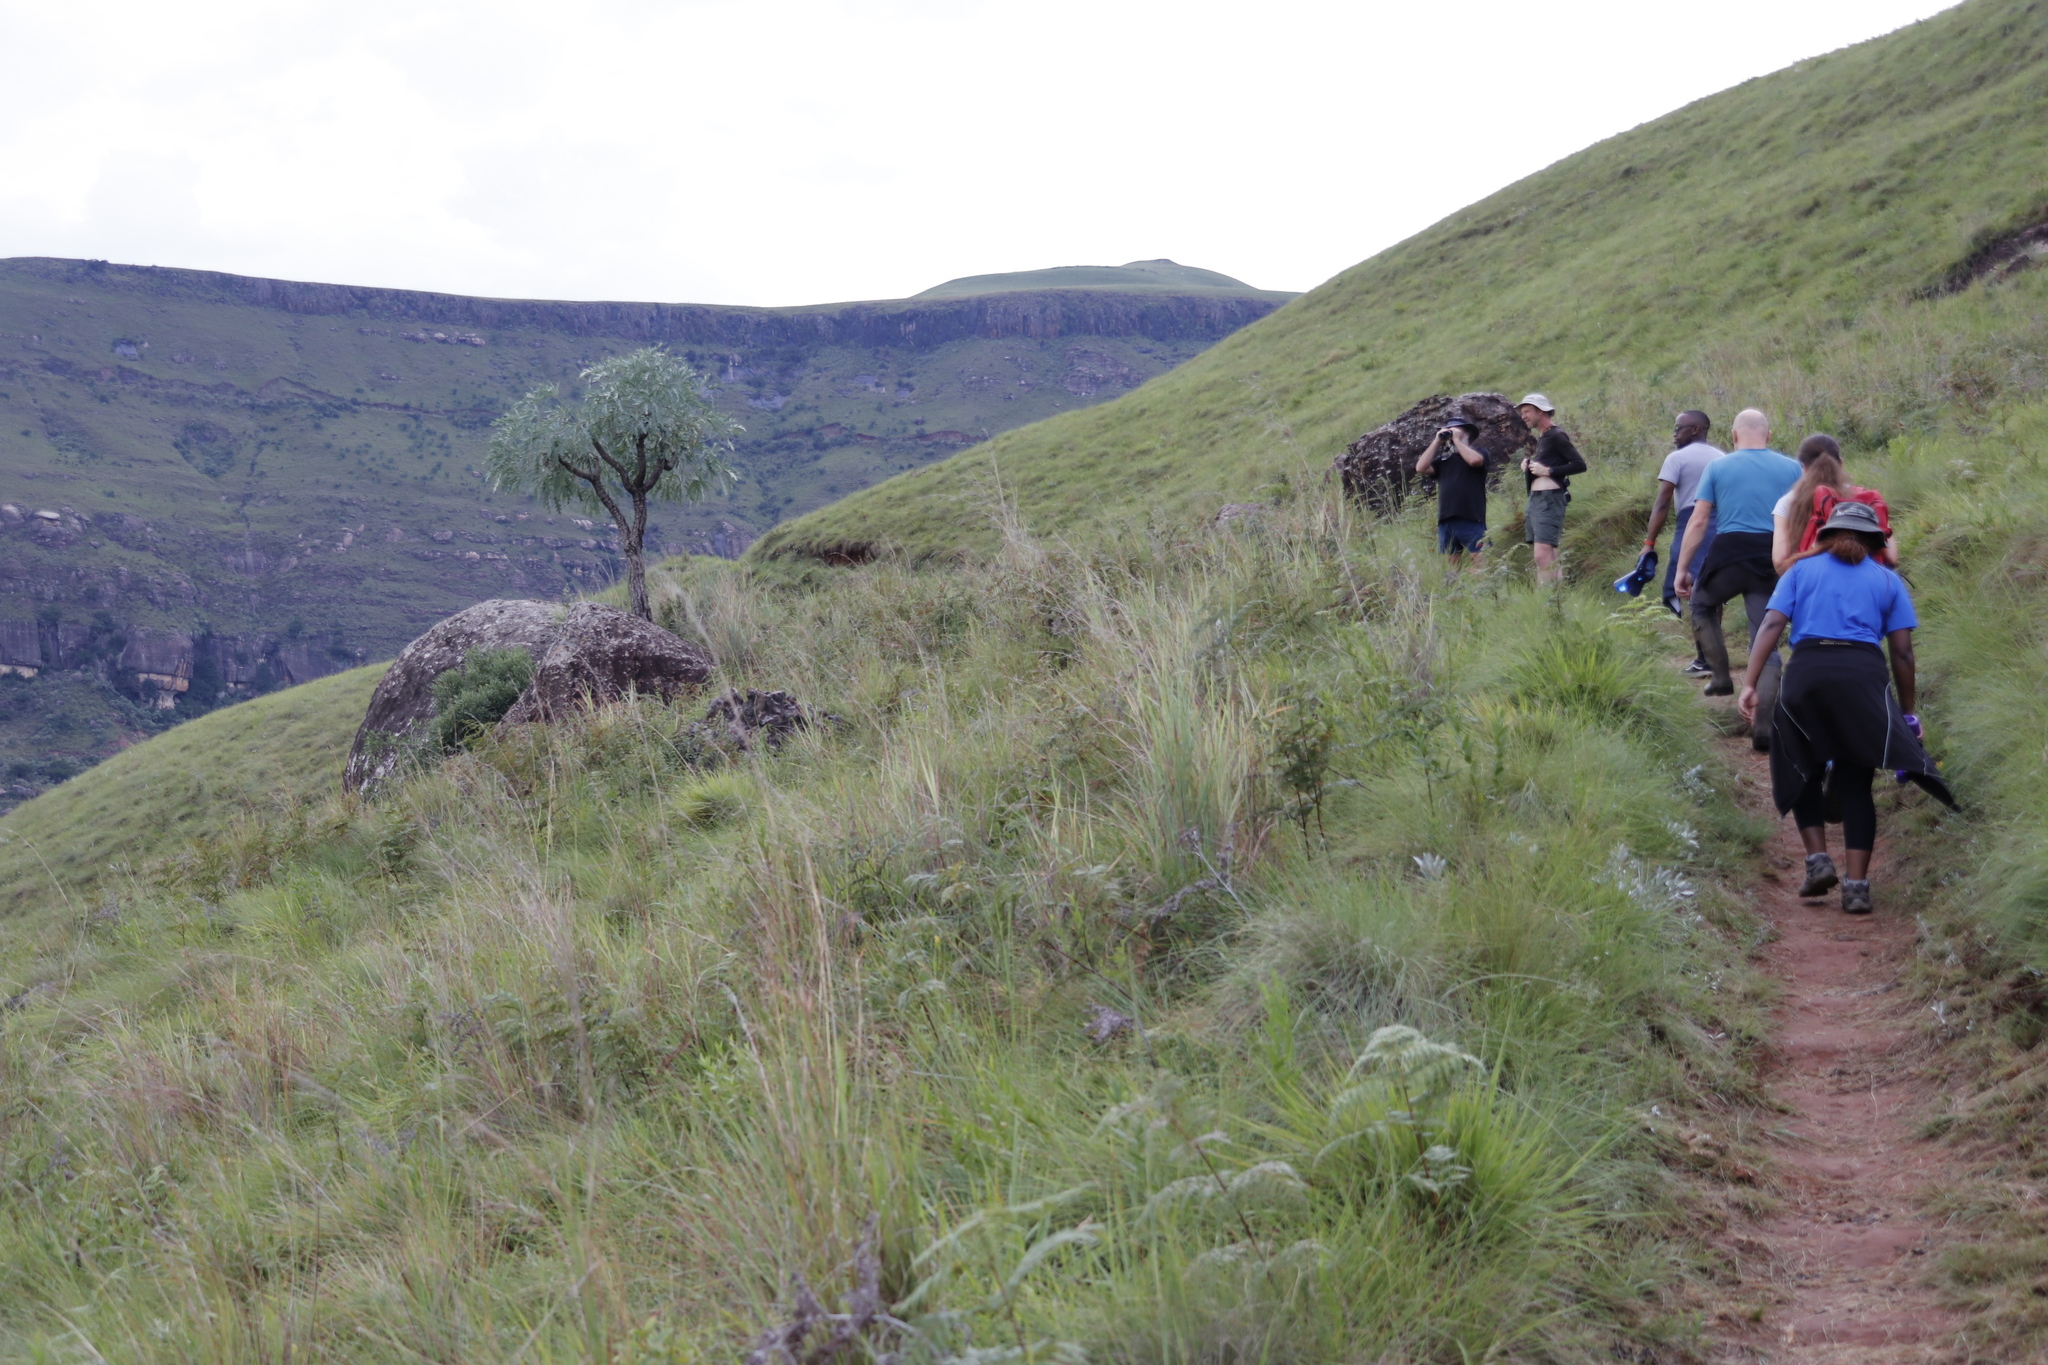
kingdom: Plantae
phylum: Tracheophyta
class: Magnoliopsida
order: Apiales
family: Araliaceae
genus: Cussonia
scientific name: Cussonia paniculata
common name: Cabbagetree
